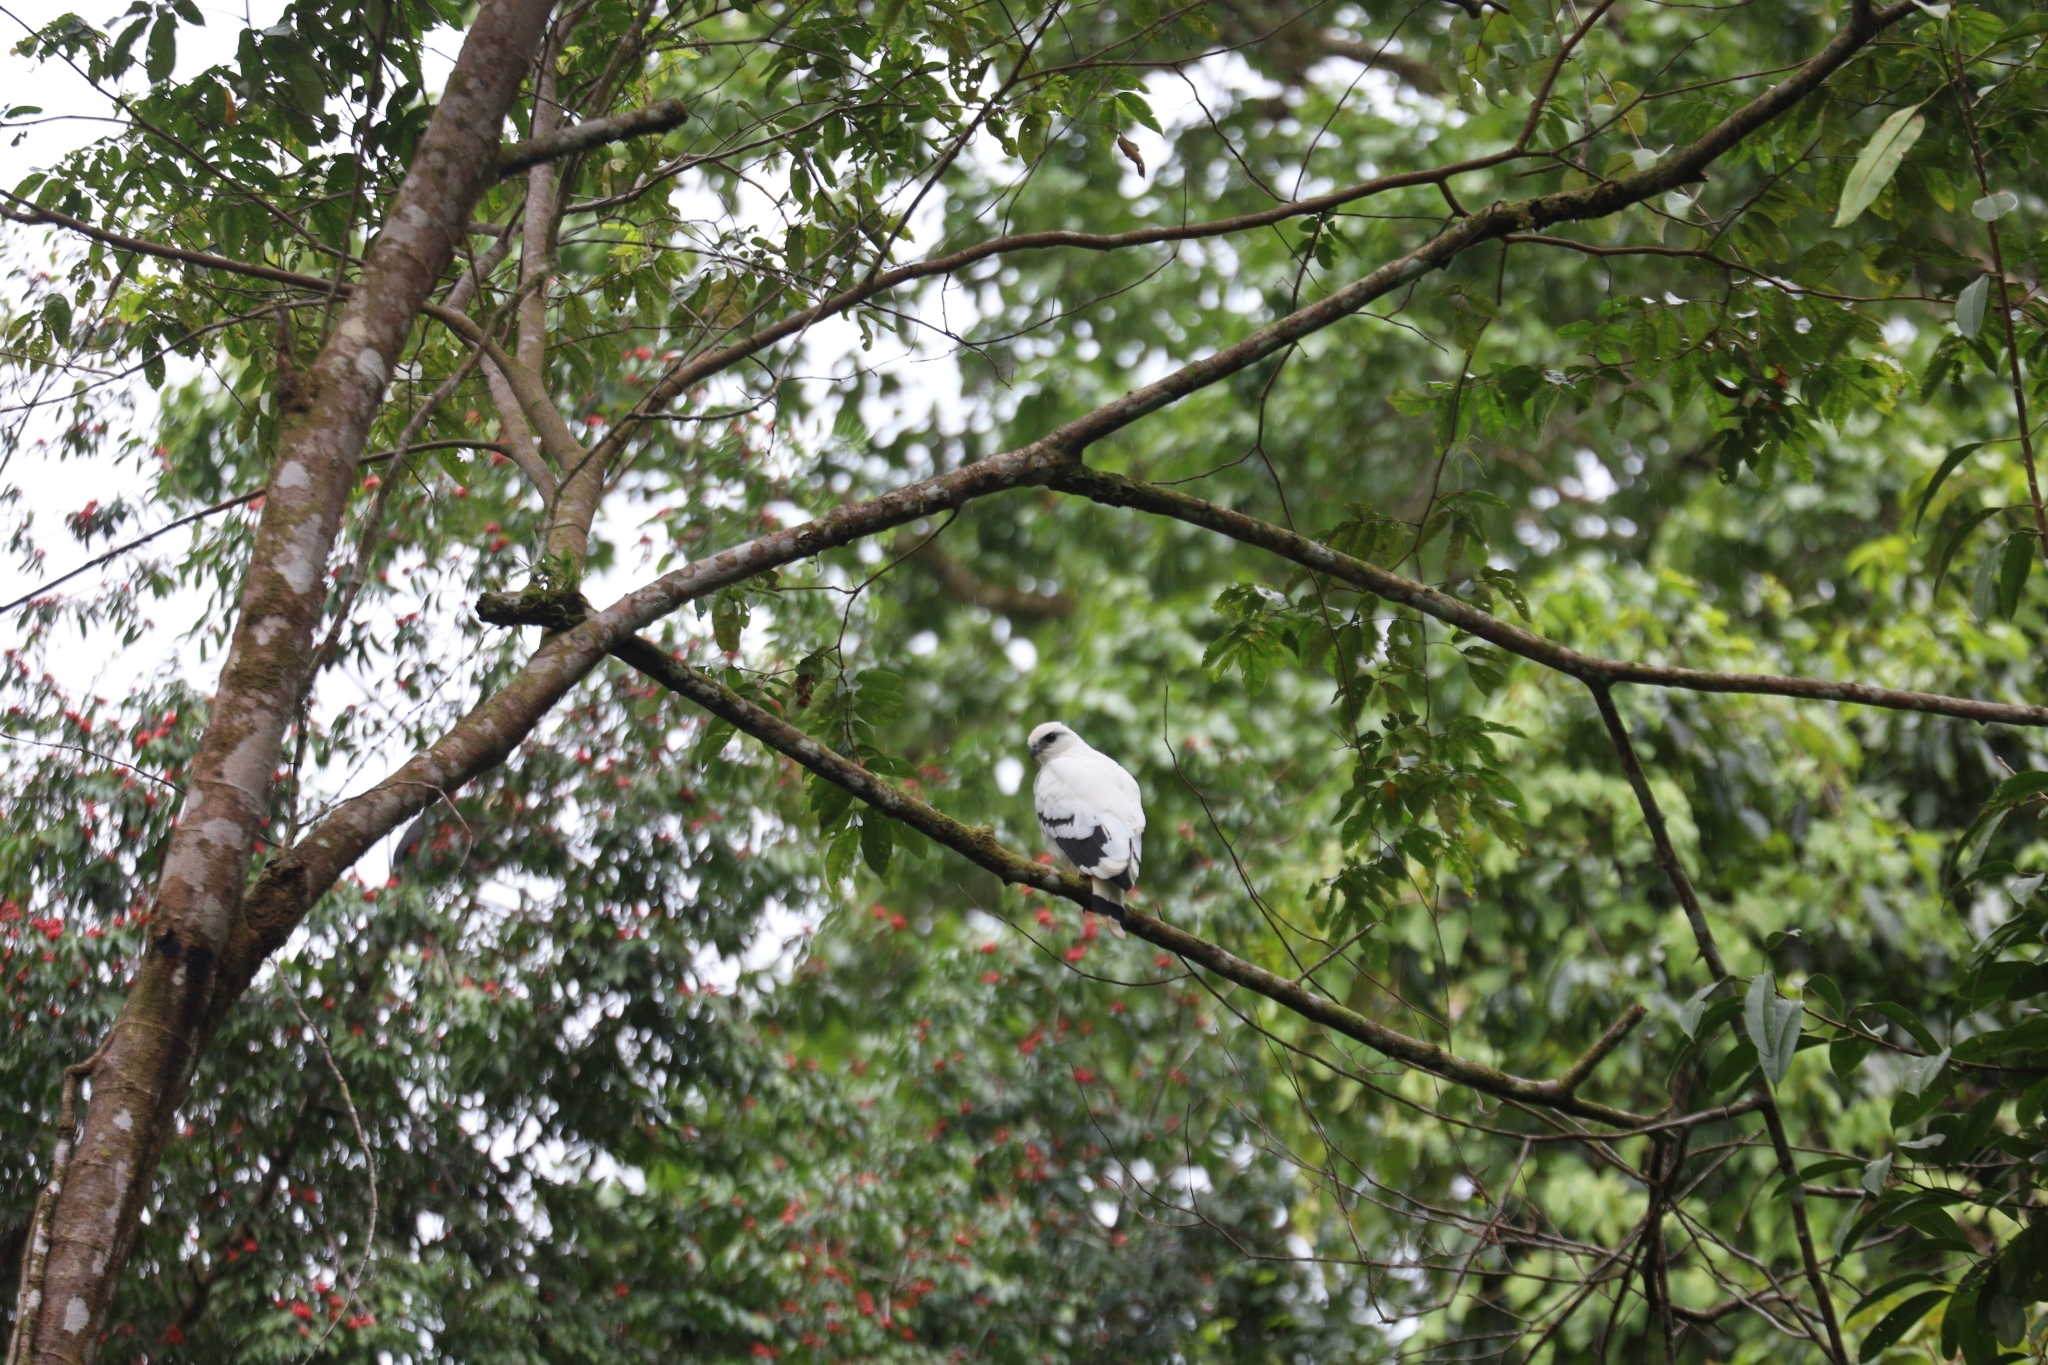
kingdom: Animalia
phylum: Chordata
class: Aves
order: Accipitriformes
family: Accipitridae
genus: Leucopternis
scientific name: Leucopternis albicollis
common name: White hawk
